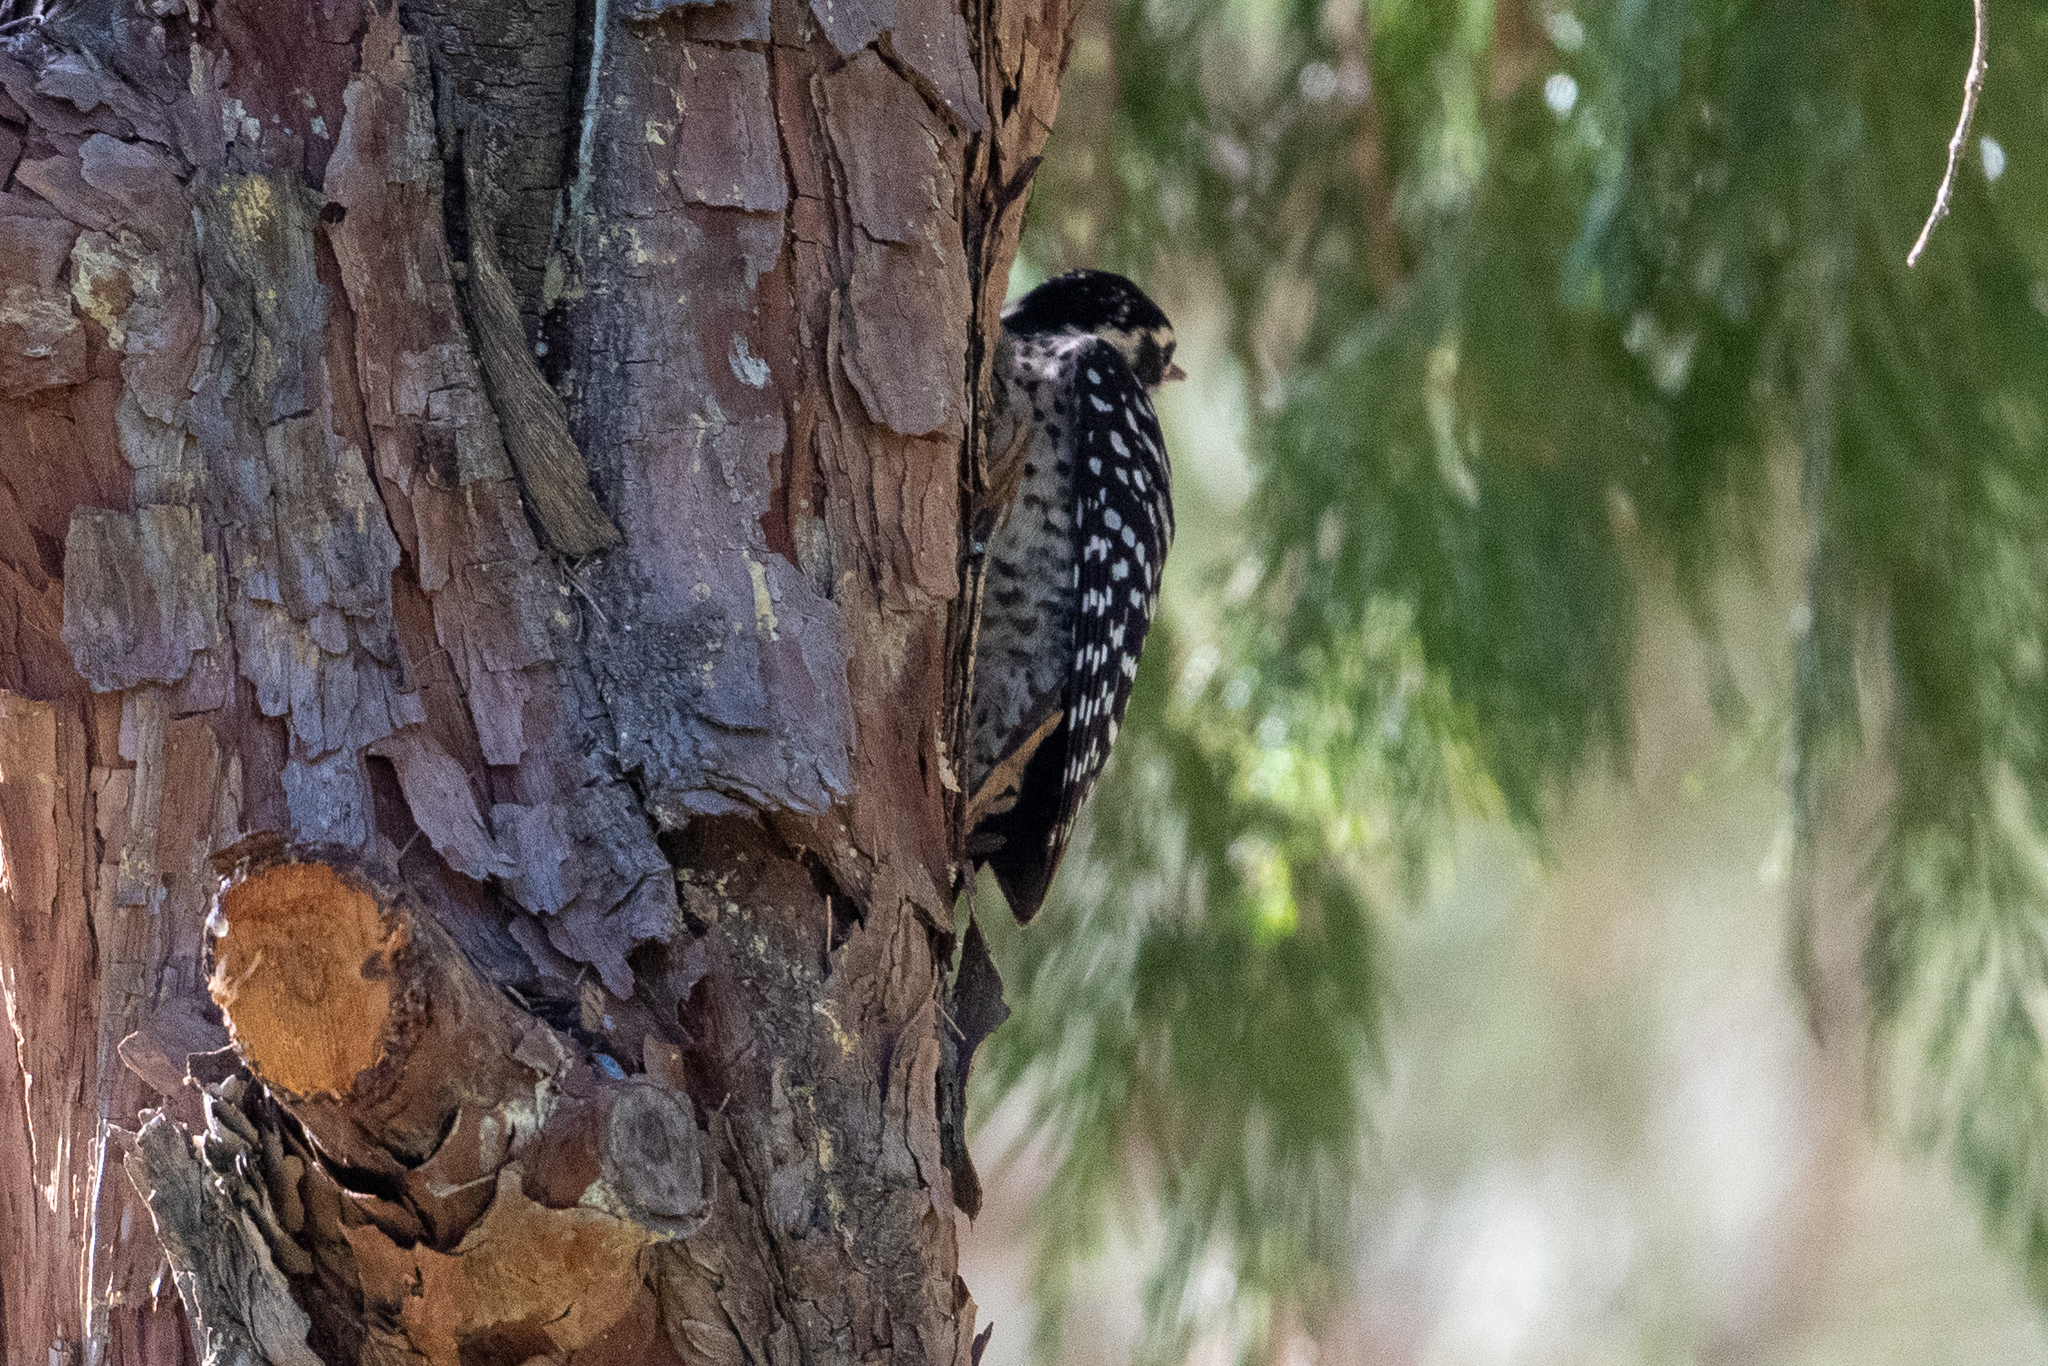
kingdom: Animalia
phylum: Chordata
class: Aves
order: Piciformes
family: Picidae
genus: Dryobates
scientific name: Dryobates nuttallii
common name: Nuttall's woodpecker
